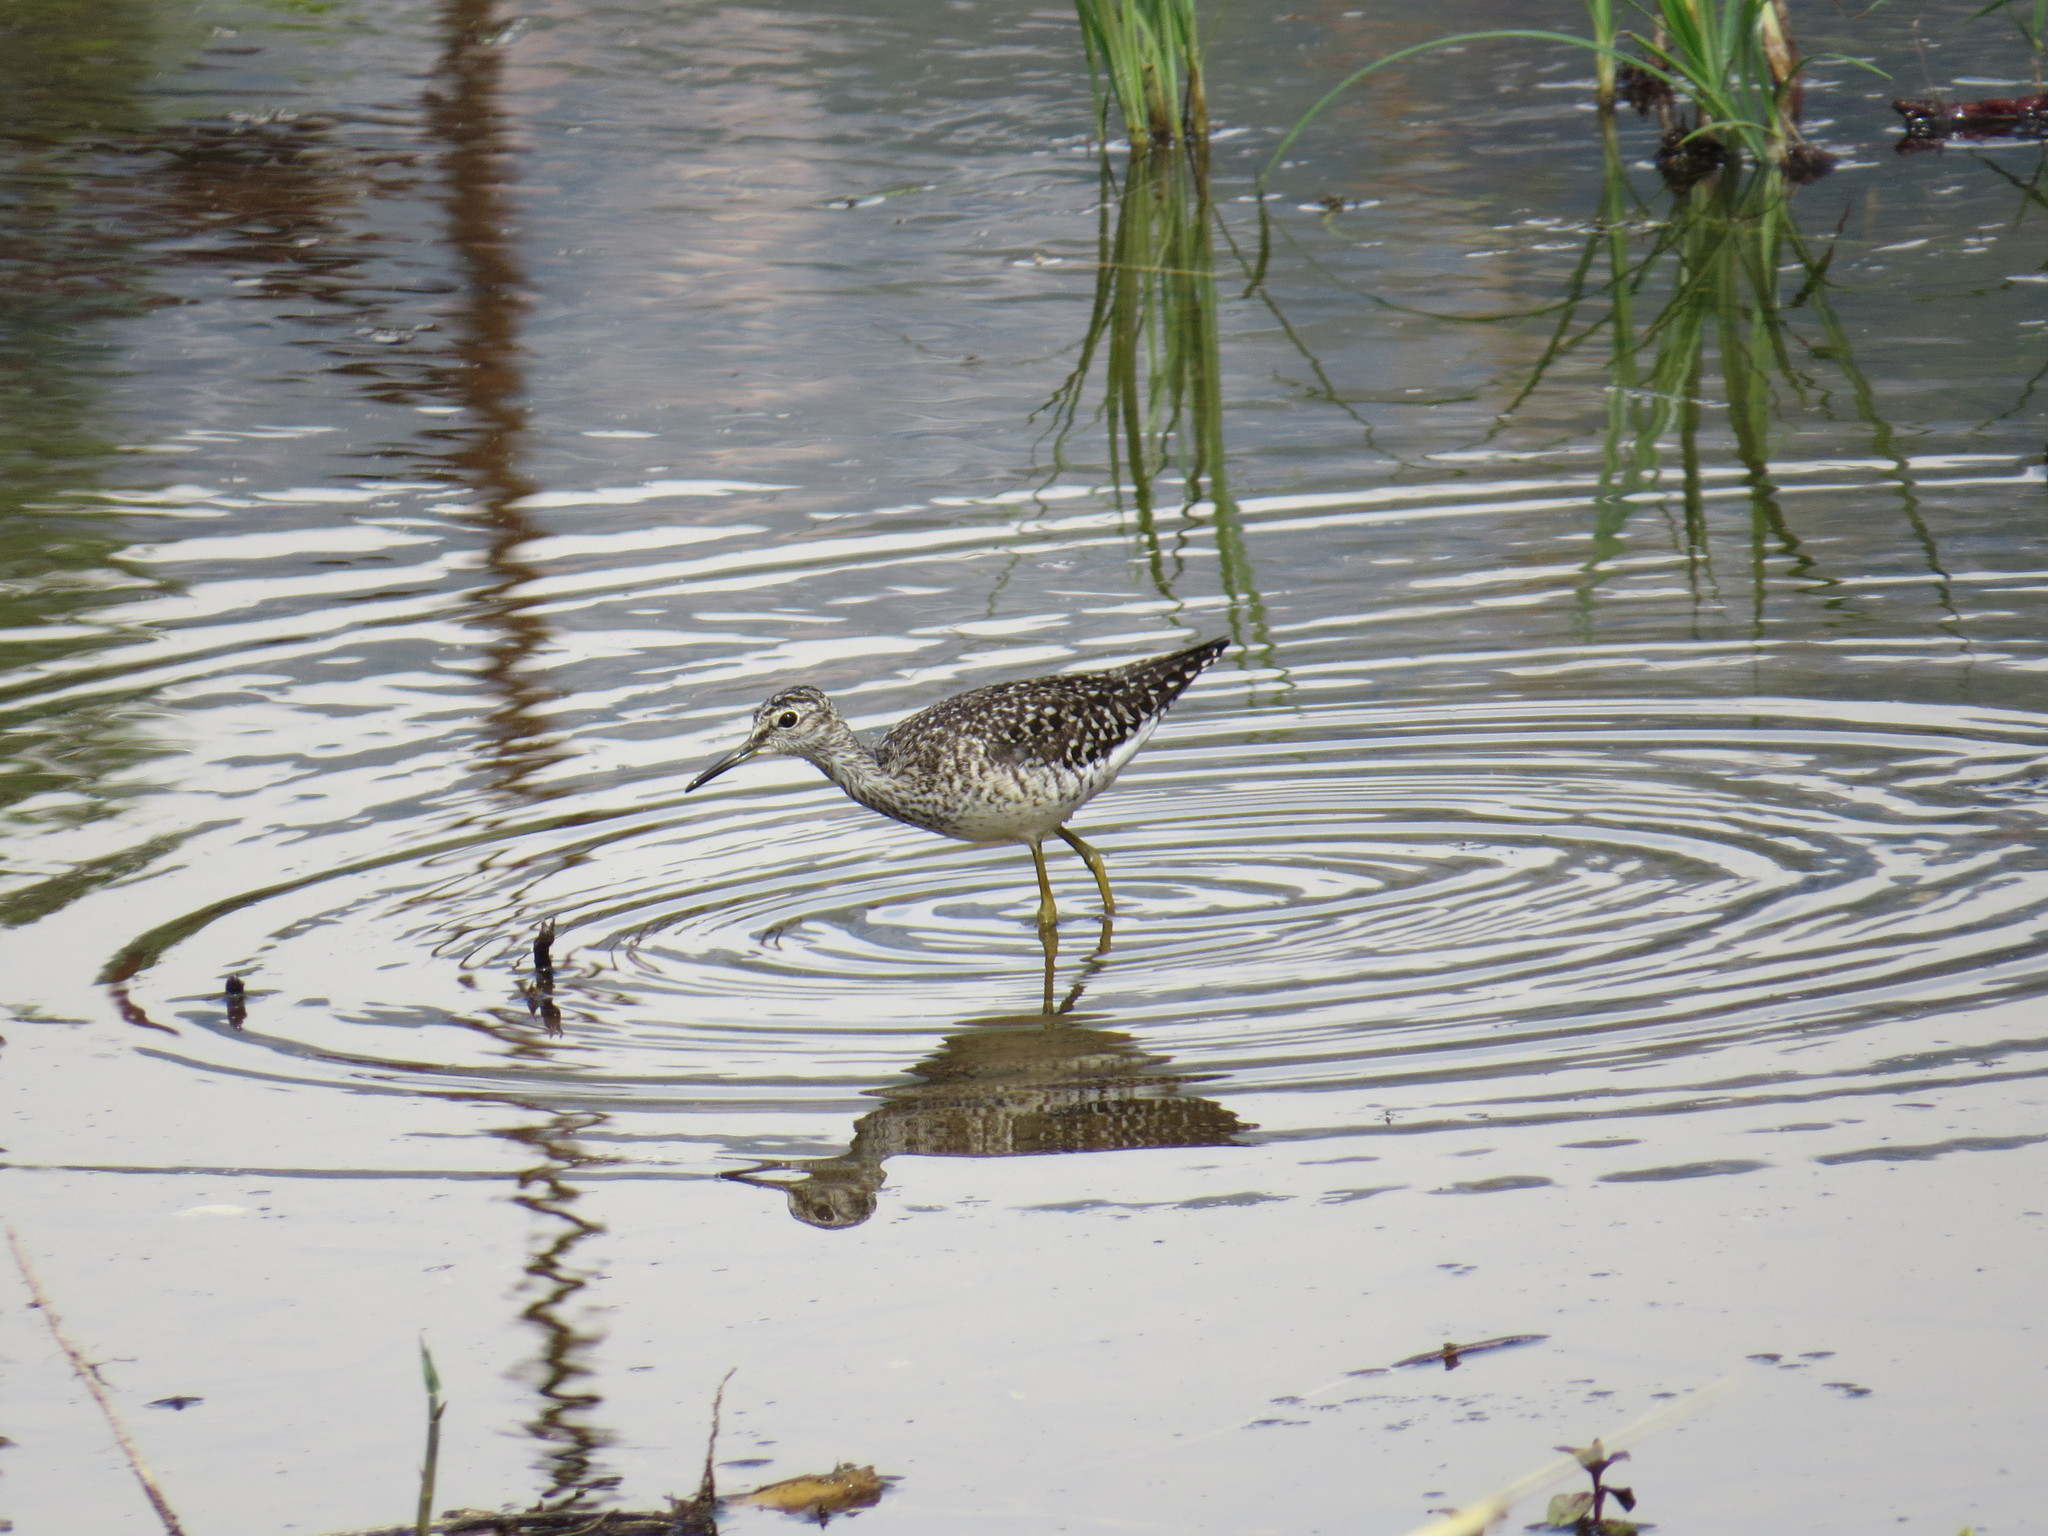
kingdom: Animalia
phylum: Chordata
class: Aves
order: Charadriiformes
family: Scolopacidae
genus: Tringa
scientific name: Tringa glareola
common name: Wood sandpiper
